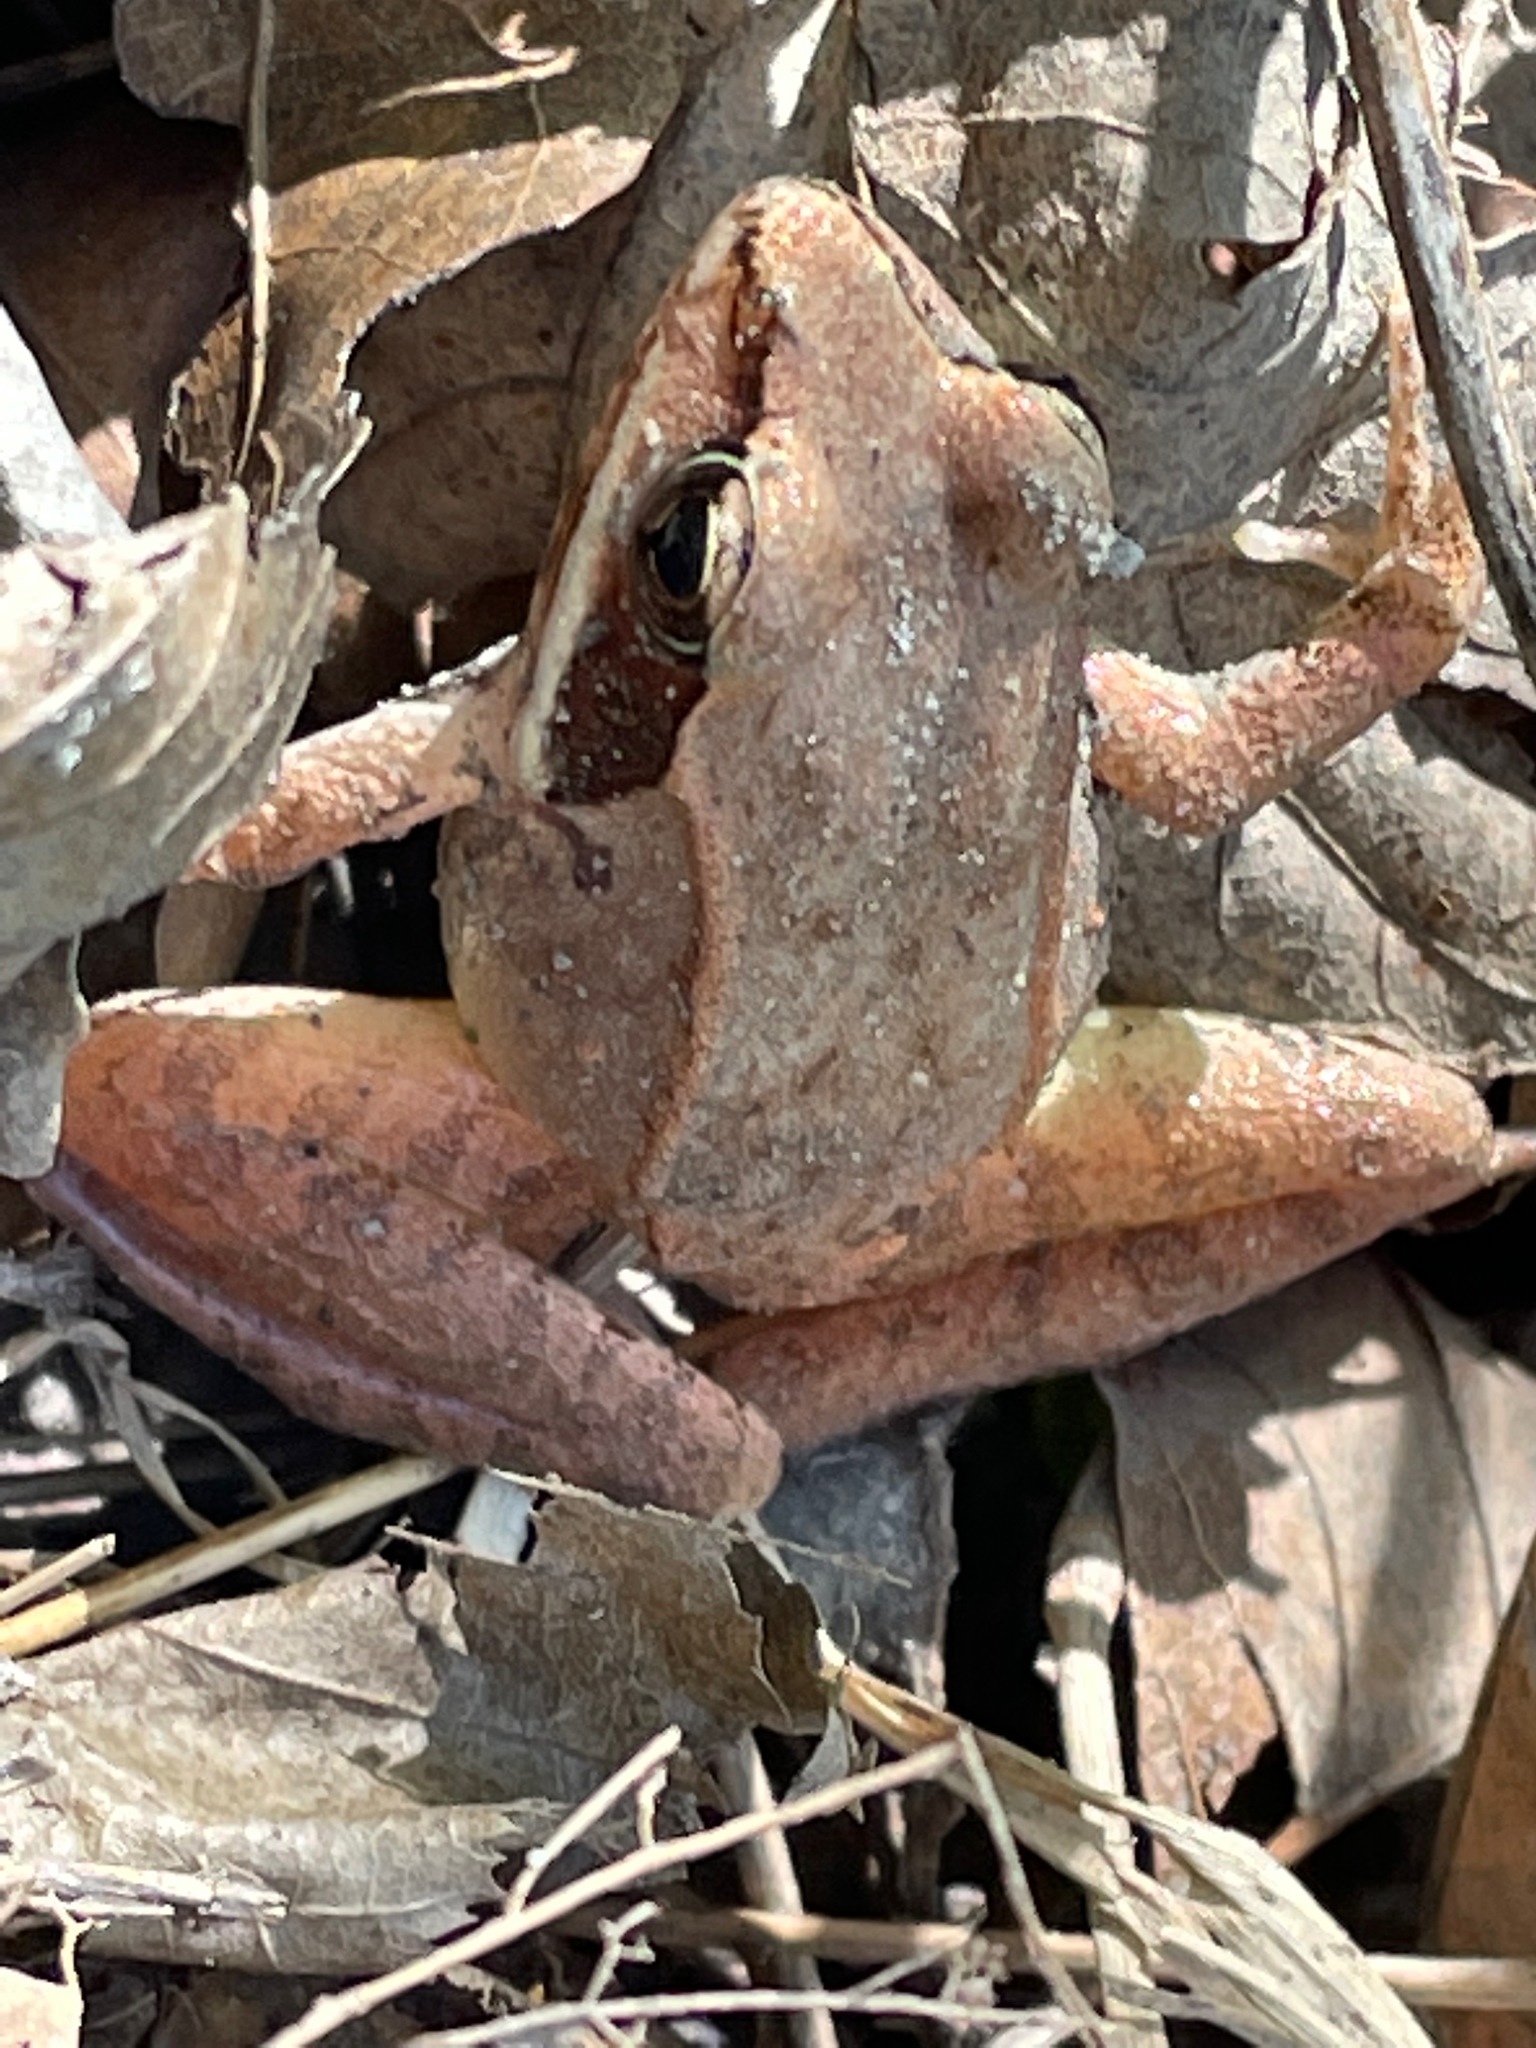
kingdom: Animalia
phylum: Chordata
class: Amphibia
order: Anura
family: Ranidae
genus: Lithobates
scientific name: Lithobates sylvaticus
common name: Wood frog
